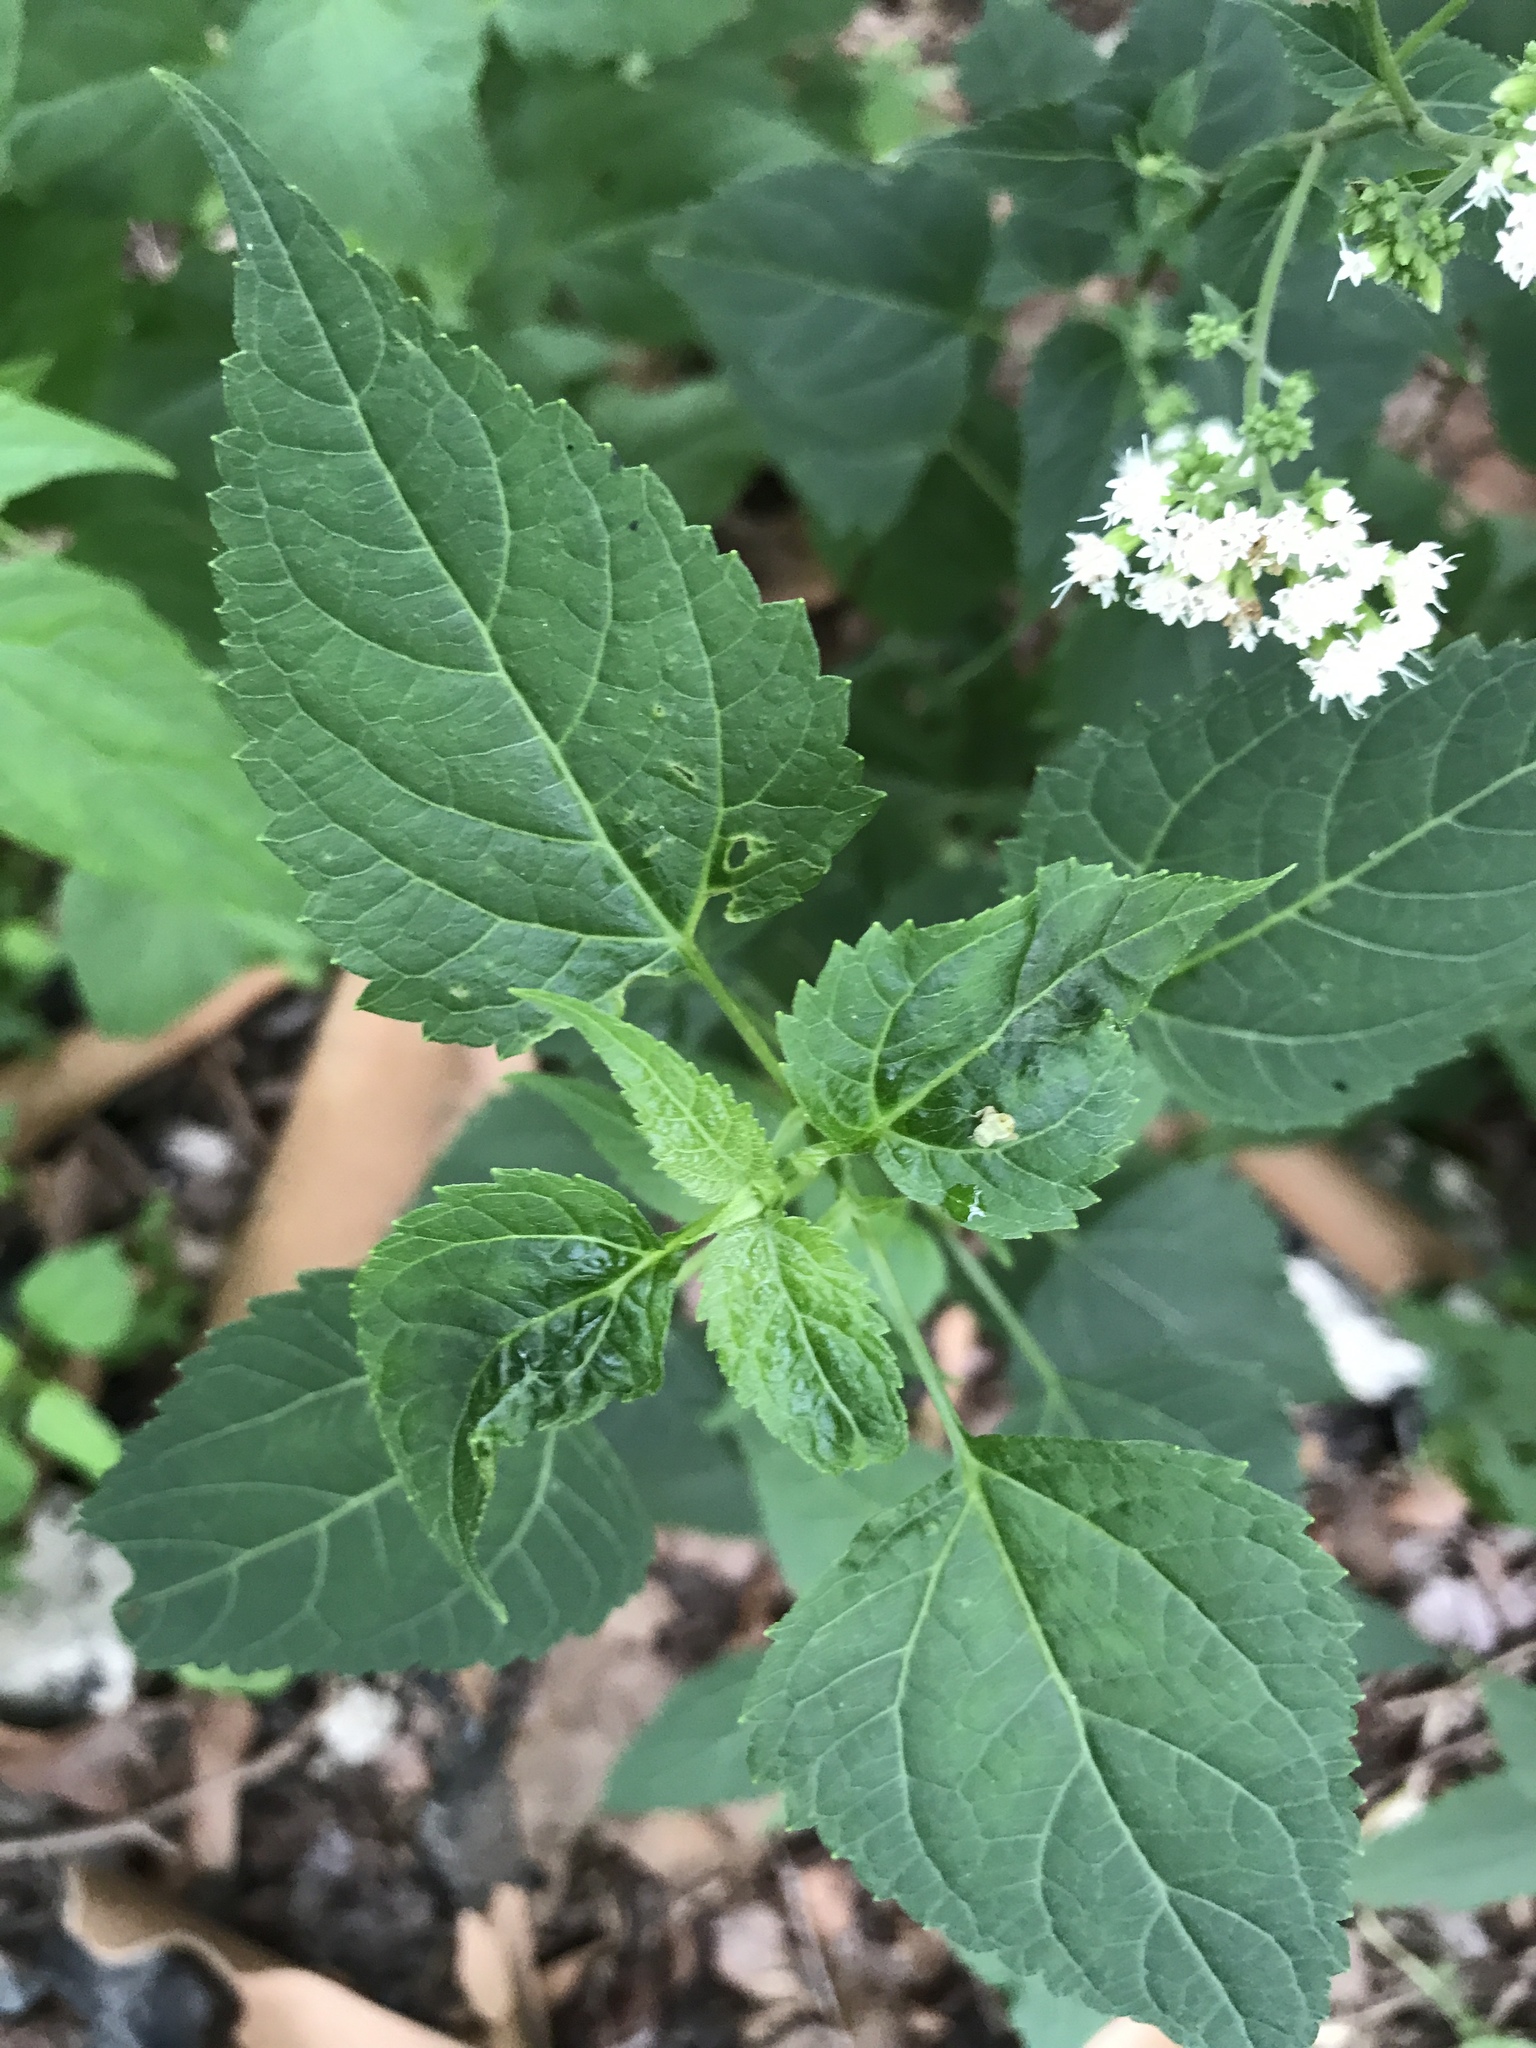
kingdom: Plantae
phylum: Tracheophyta
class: Magnoliopsida
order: Asterales
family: Asteraceae
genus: Ageratina
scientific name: Ageratina altissima
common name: White snakeroot
